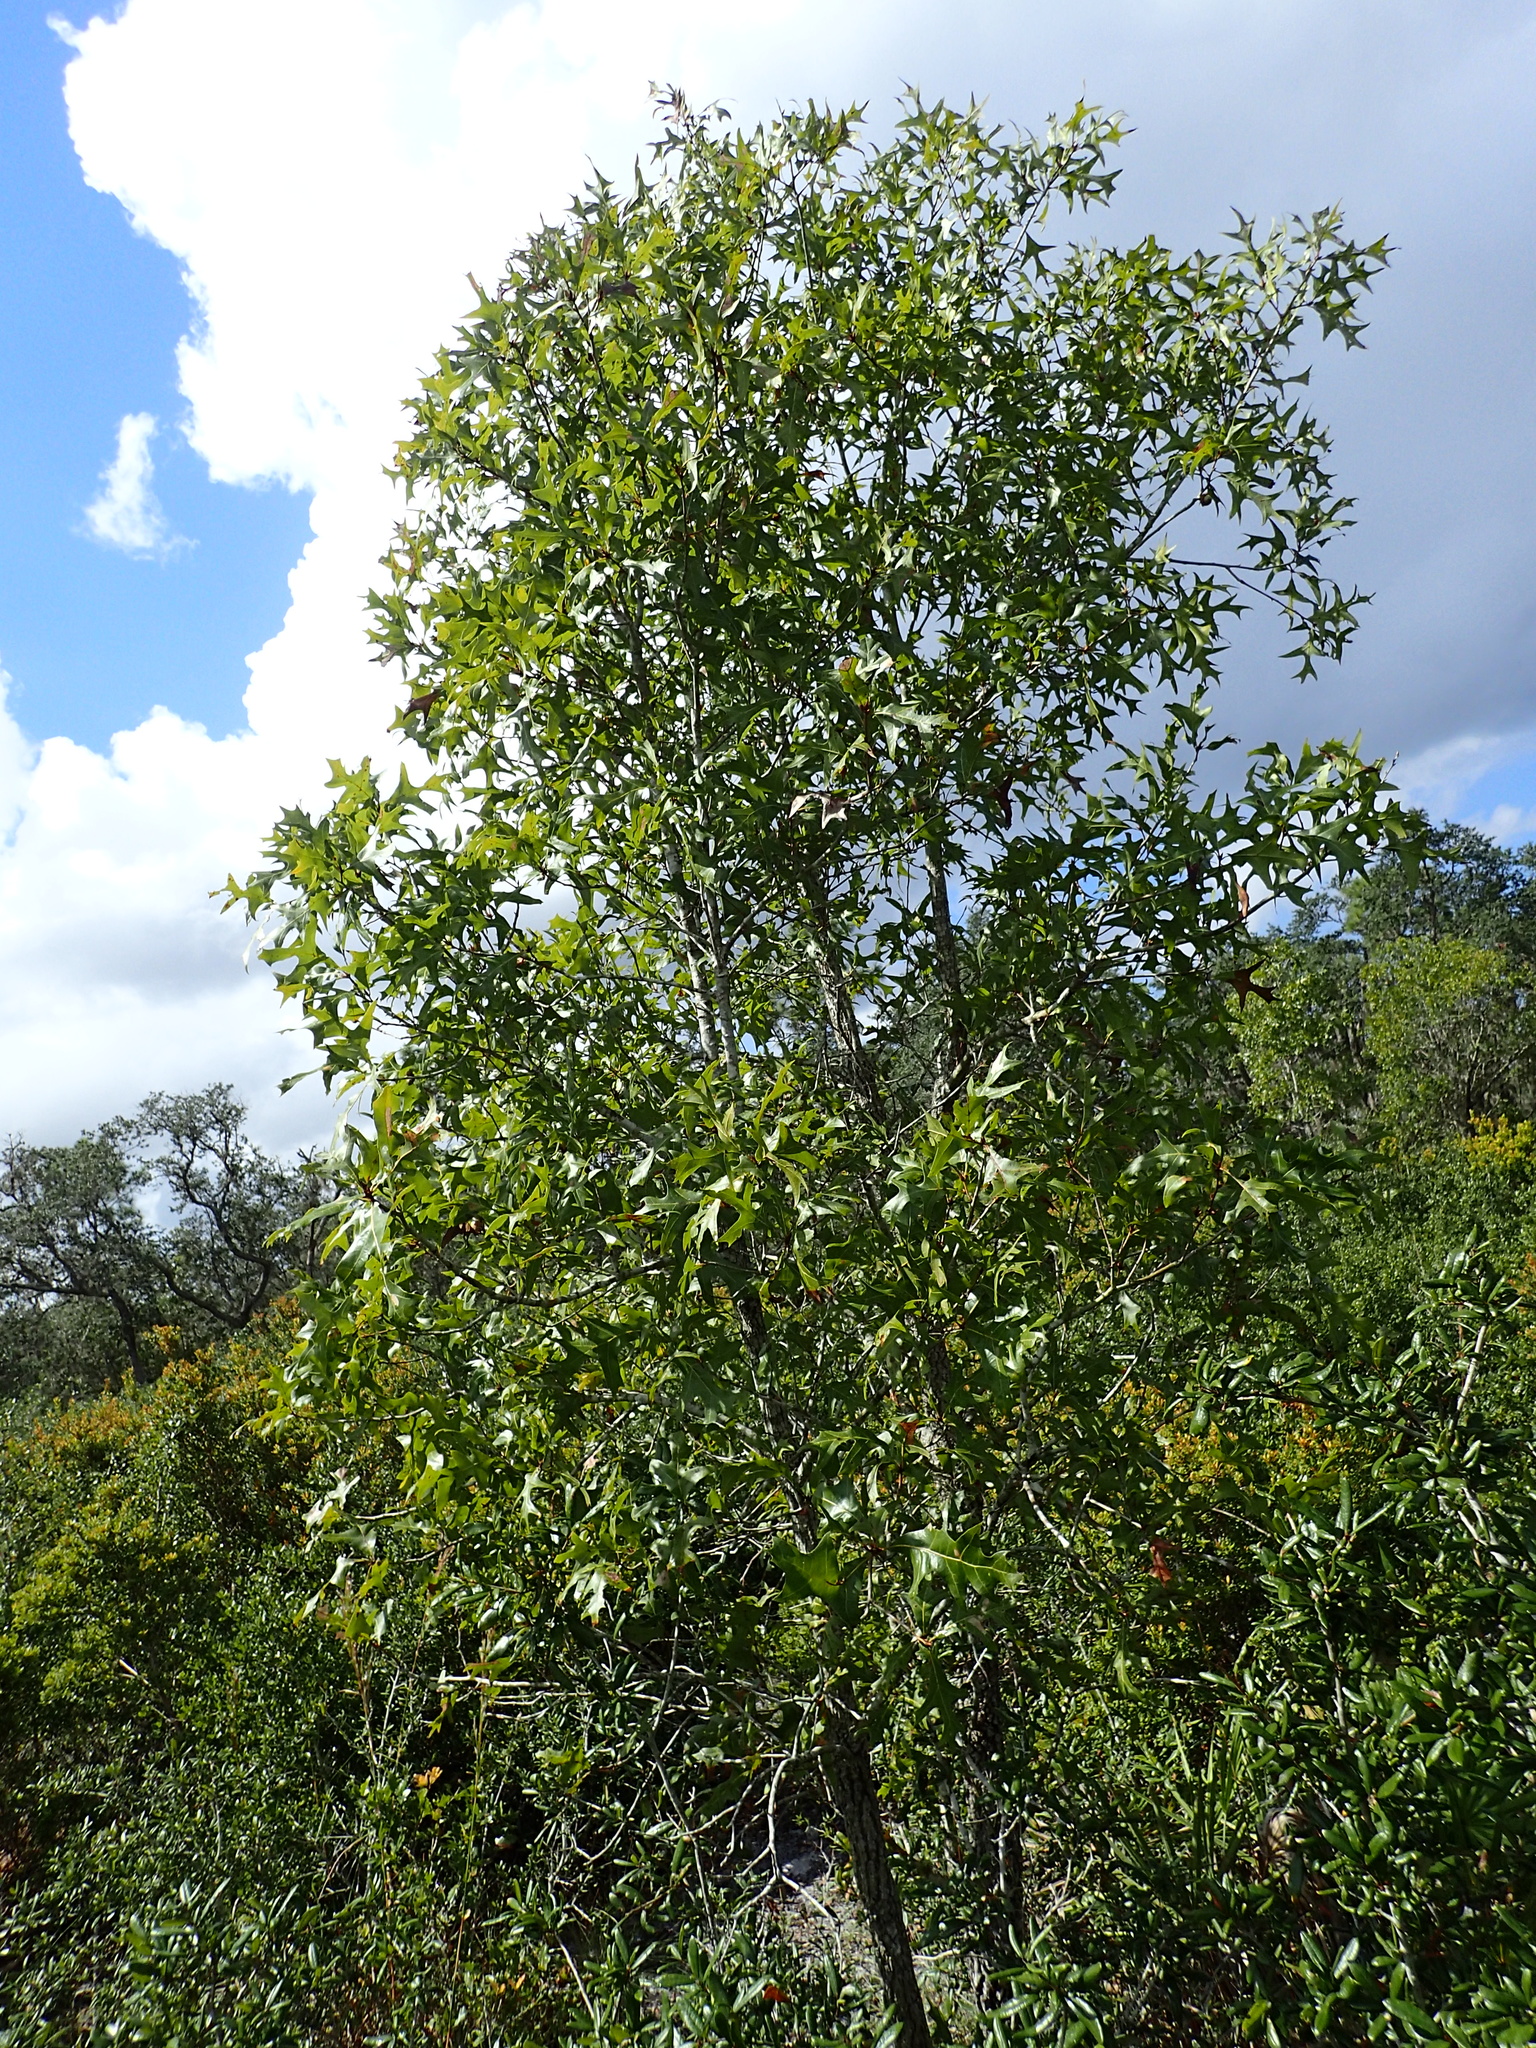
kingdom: Plantae
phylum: Tracheophyta
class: Magnoliopsida
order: Fagales
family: Fagaceae
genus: Quercus
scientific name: Quercus laevis
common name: Turkey oak
